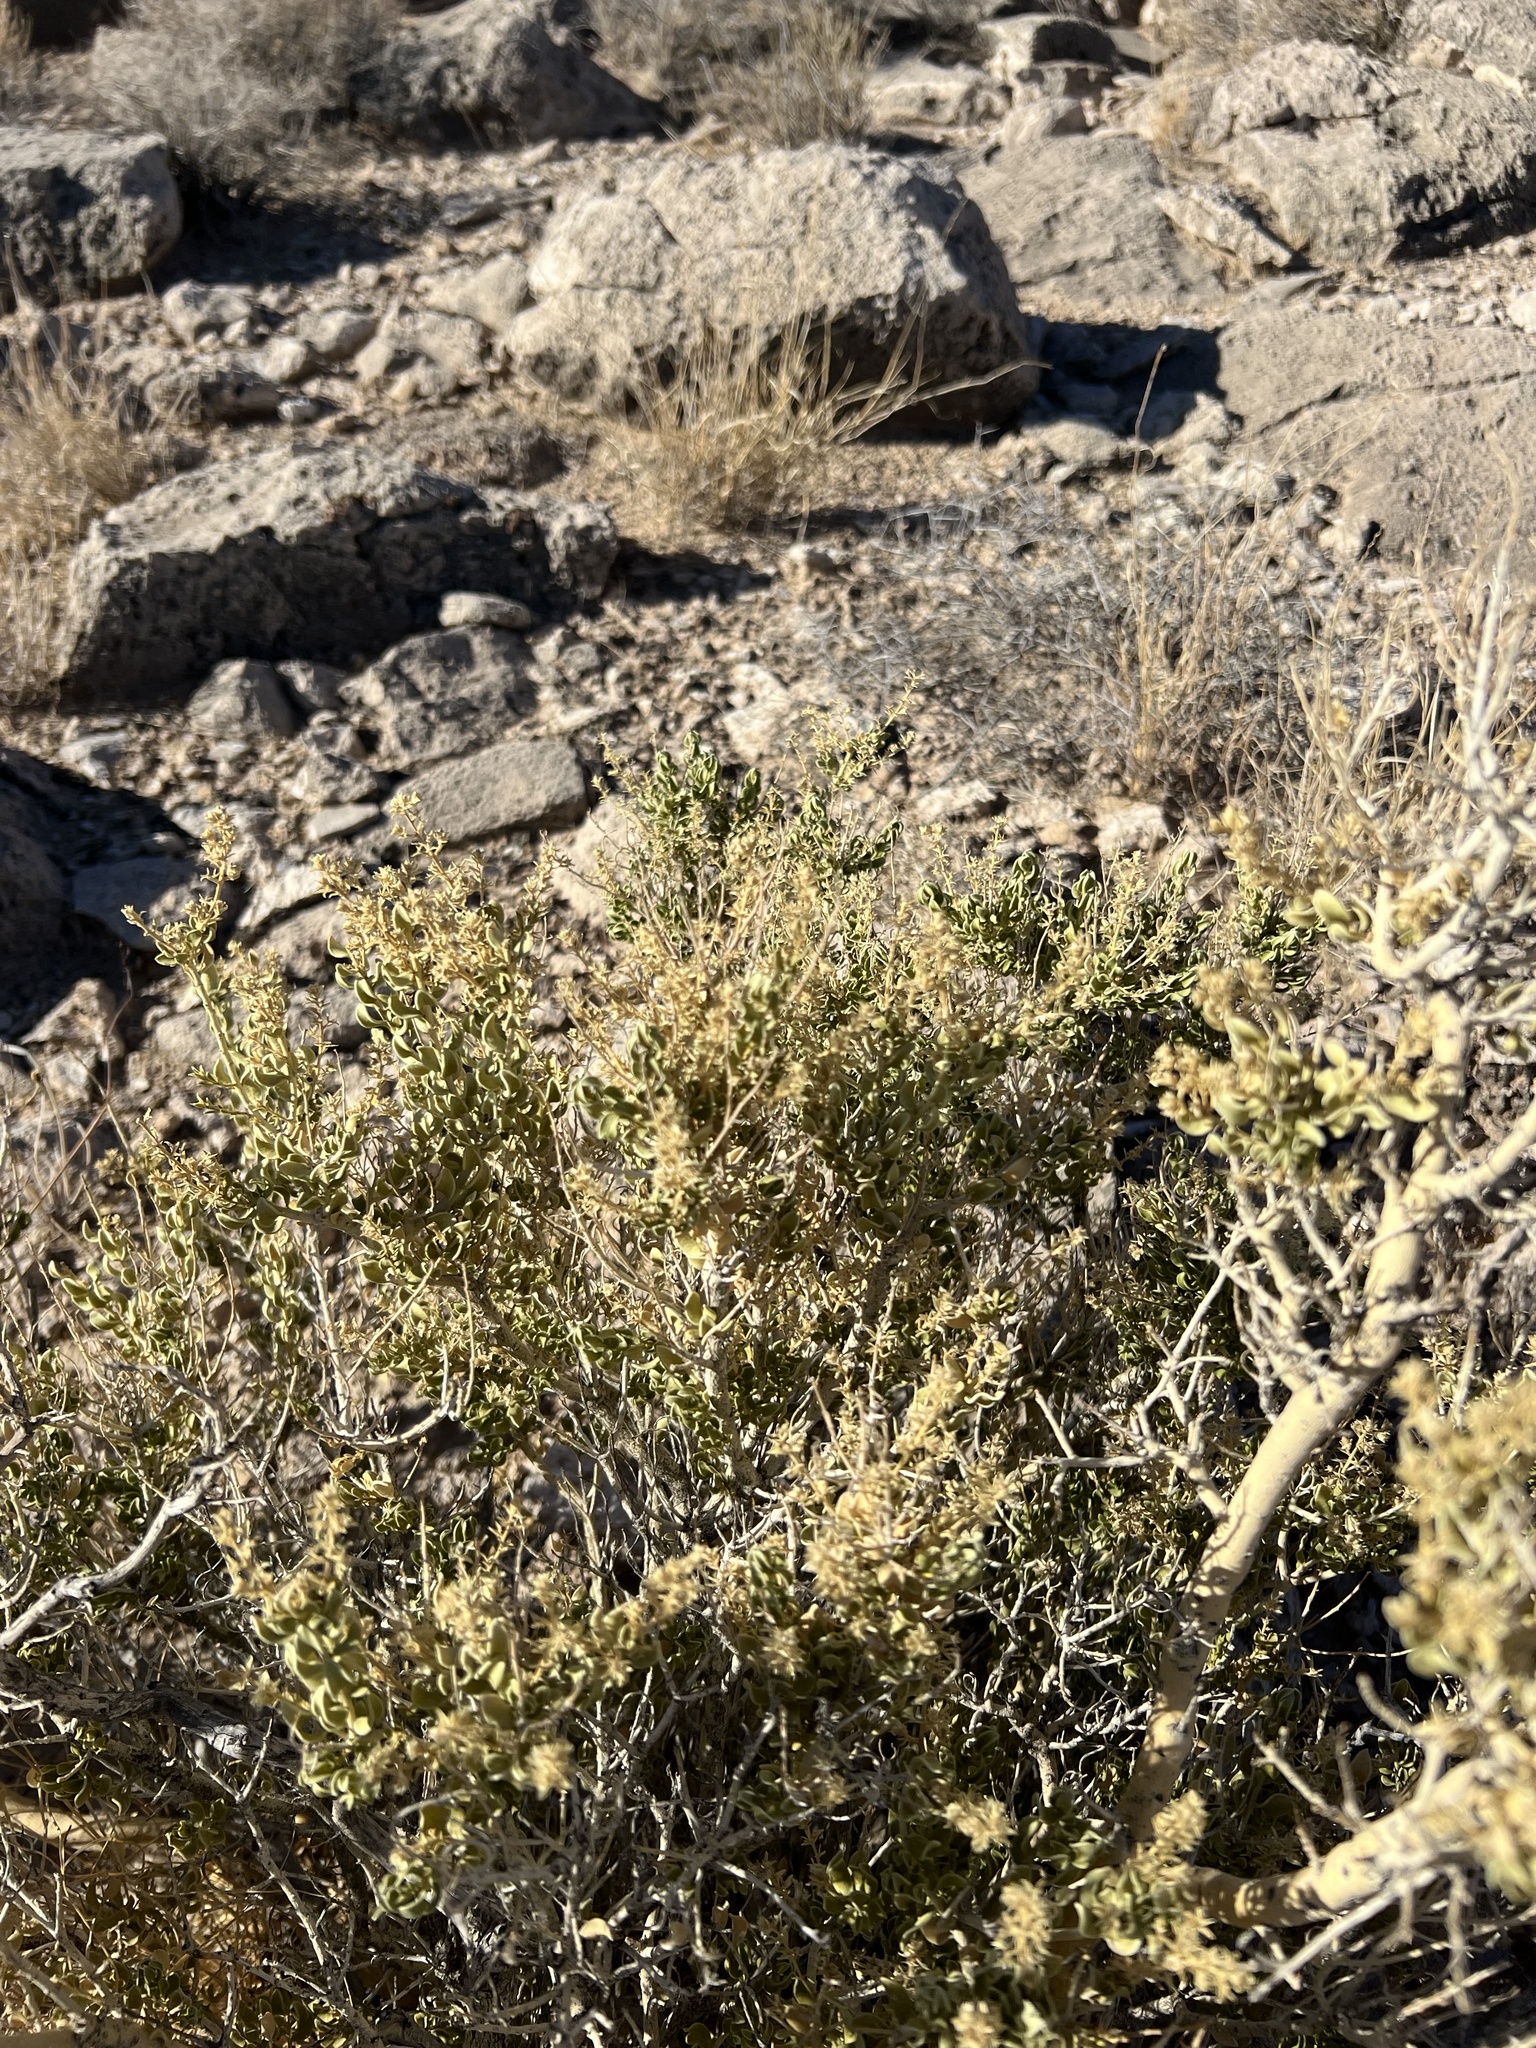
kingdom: Plantae
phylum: Tracheophyta
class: Magnoliopsida
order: Celastrales
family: Celastraceae
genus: Mortonia
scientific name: Mortonia utahensis
